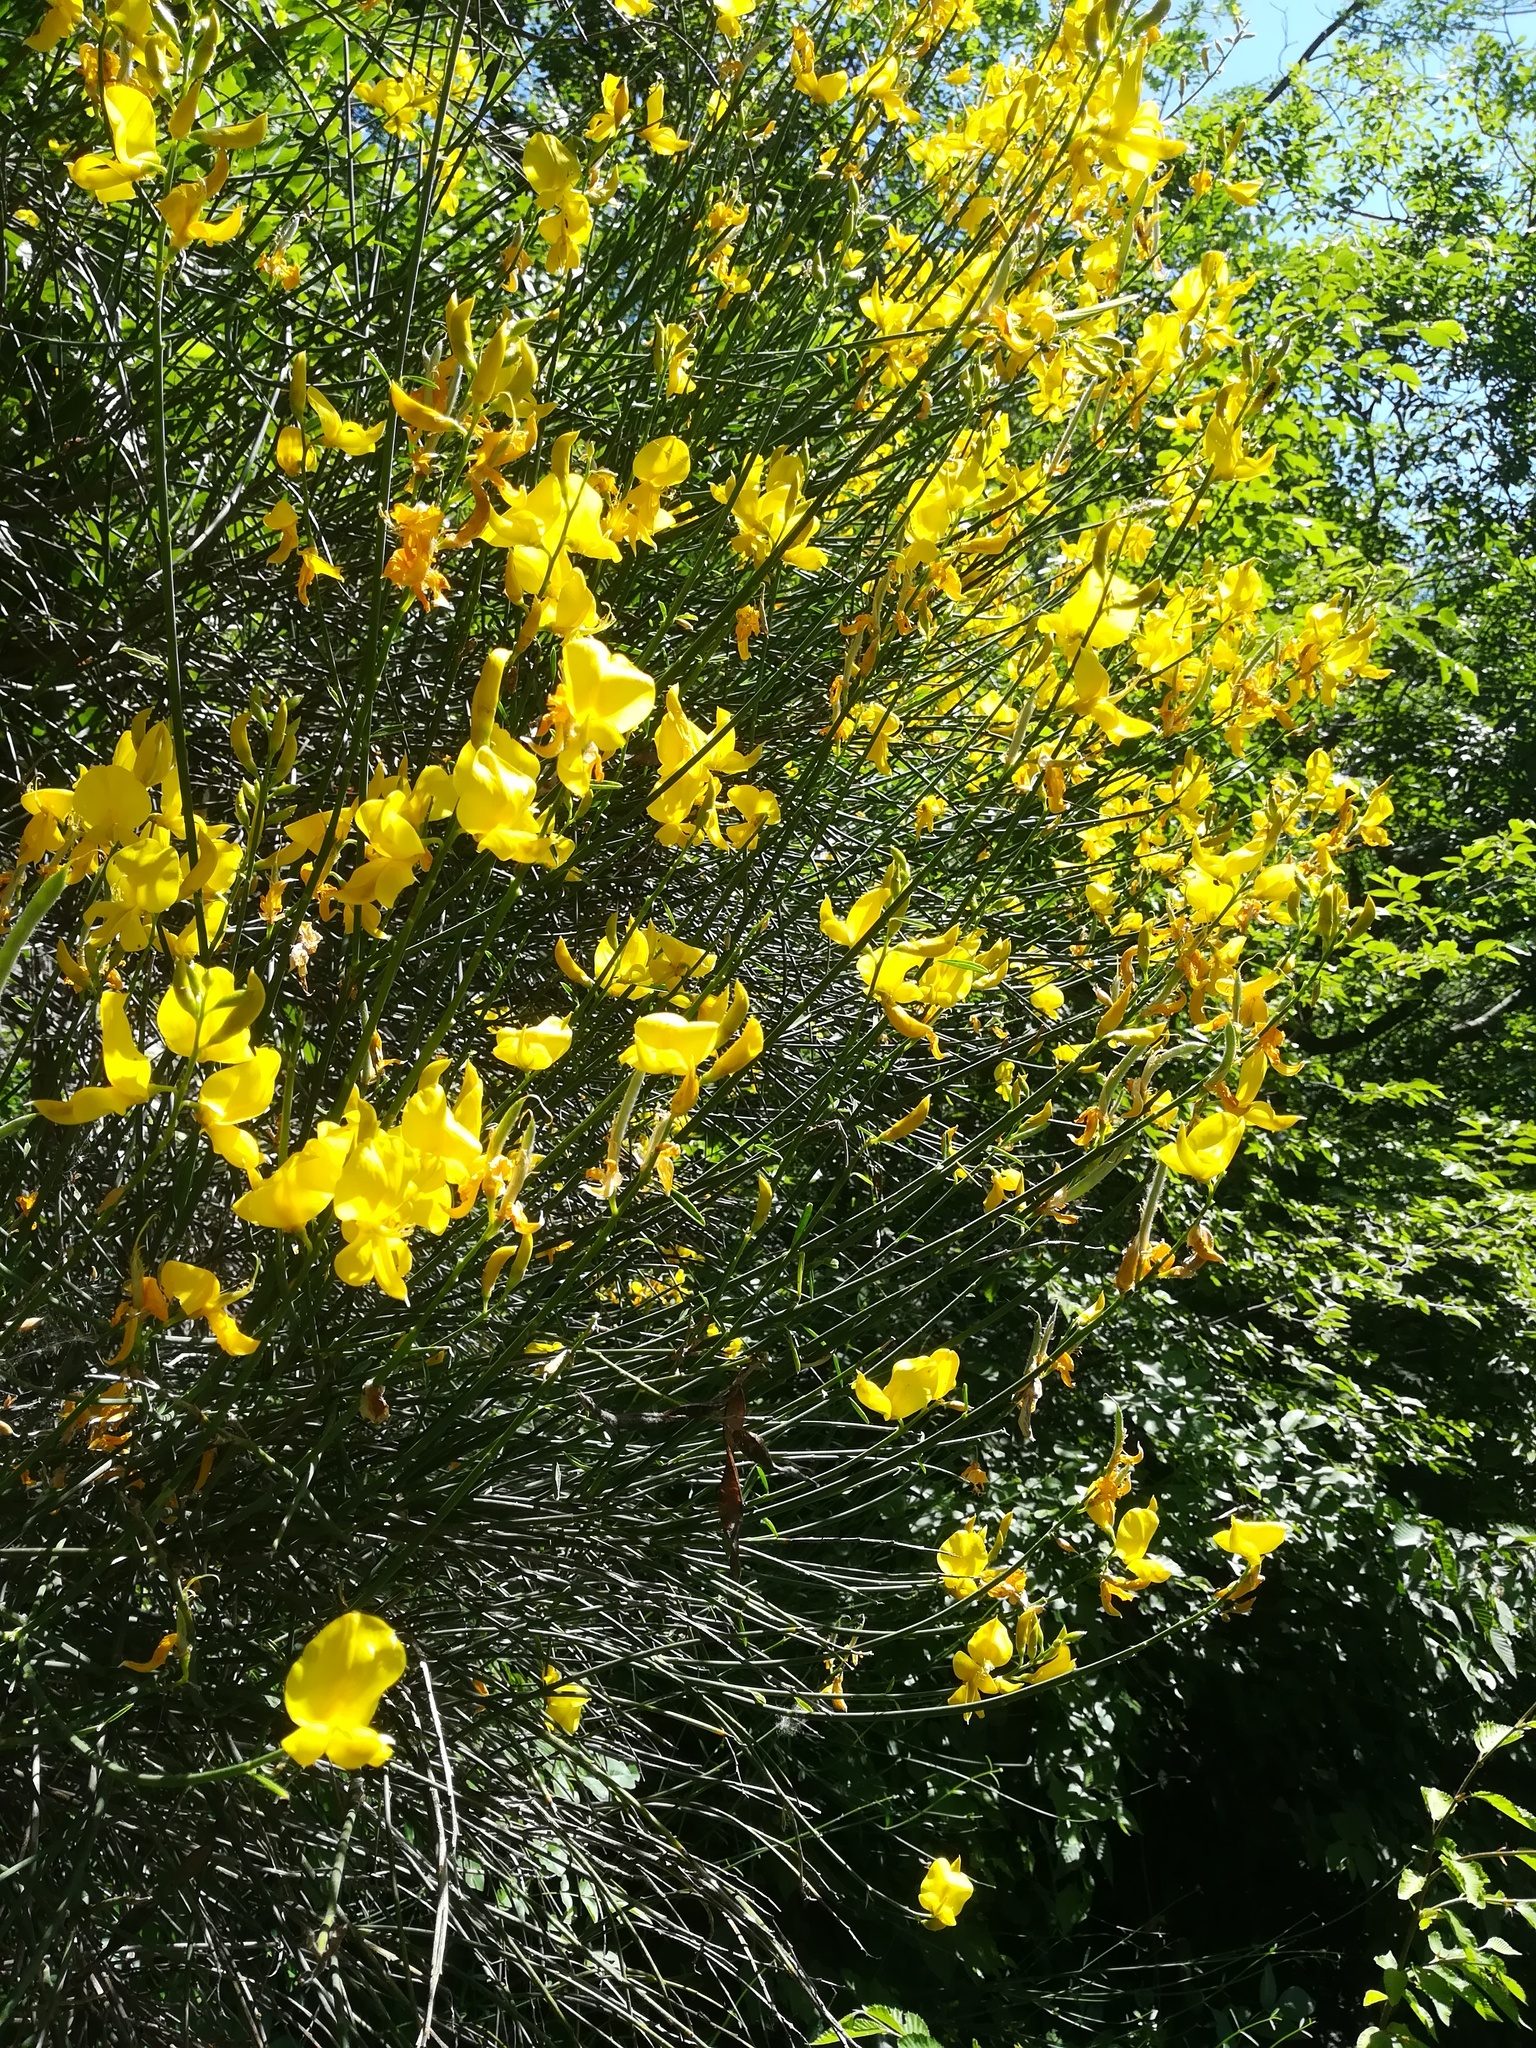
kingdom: Plantae
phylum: Tracheophyta
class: Magnoliopsida
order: Fabales
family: Fabaceae
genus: Spartium
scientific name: Spartium junceum
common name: Spanish broom
